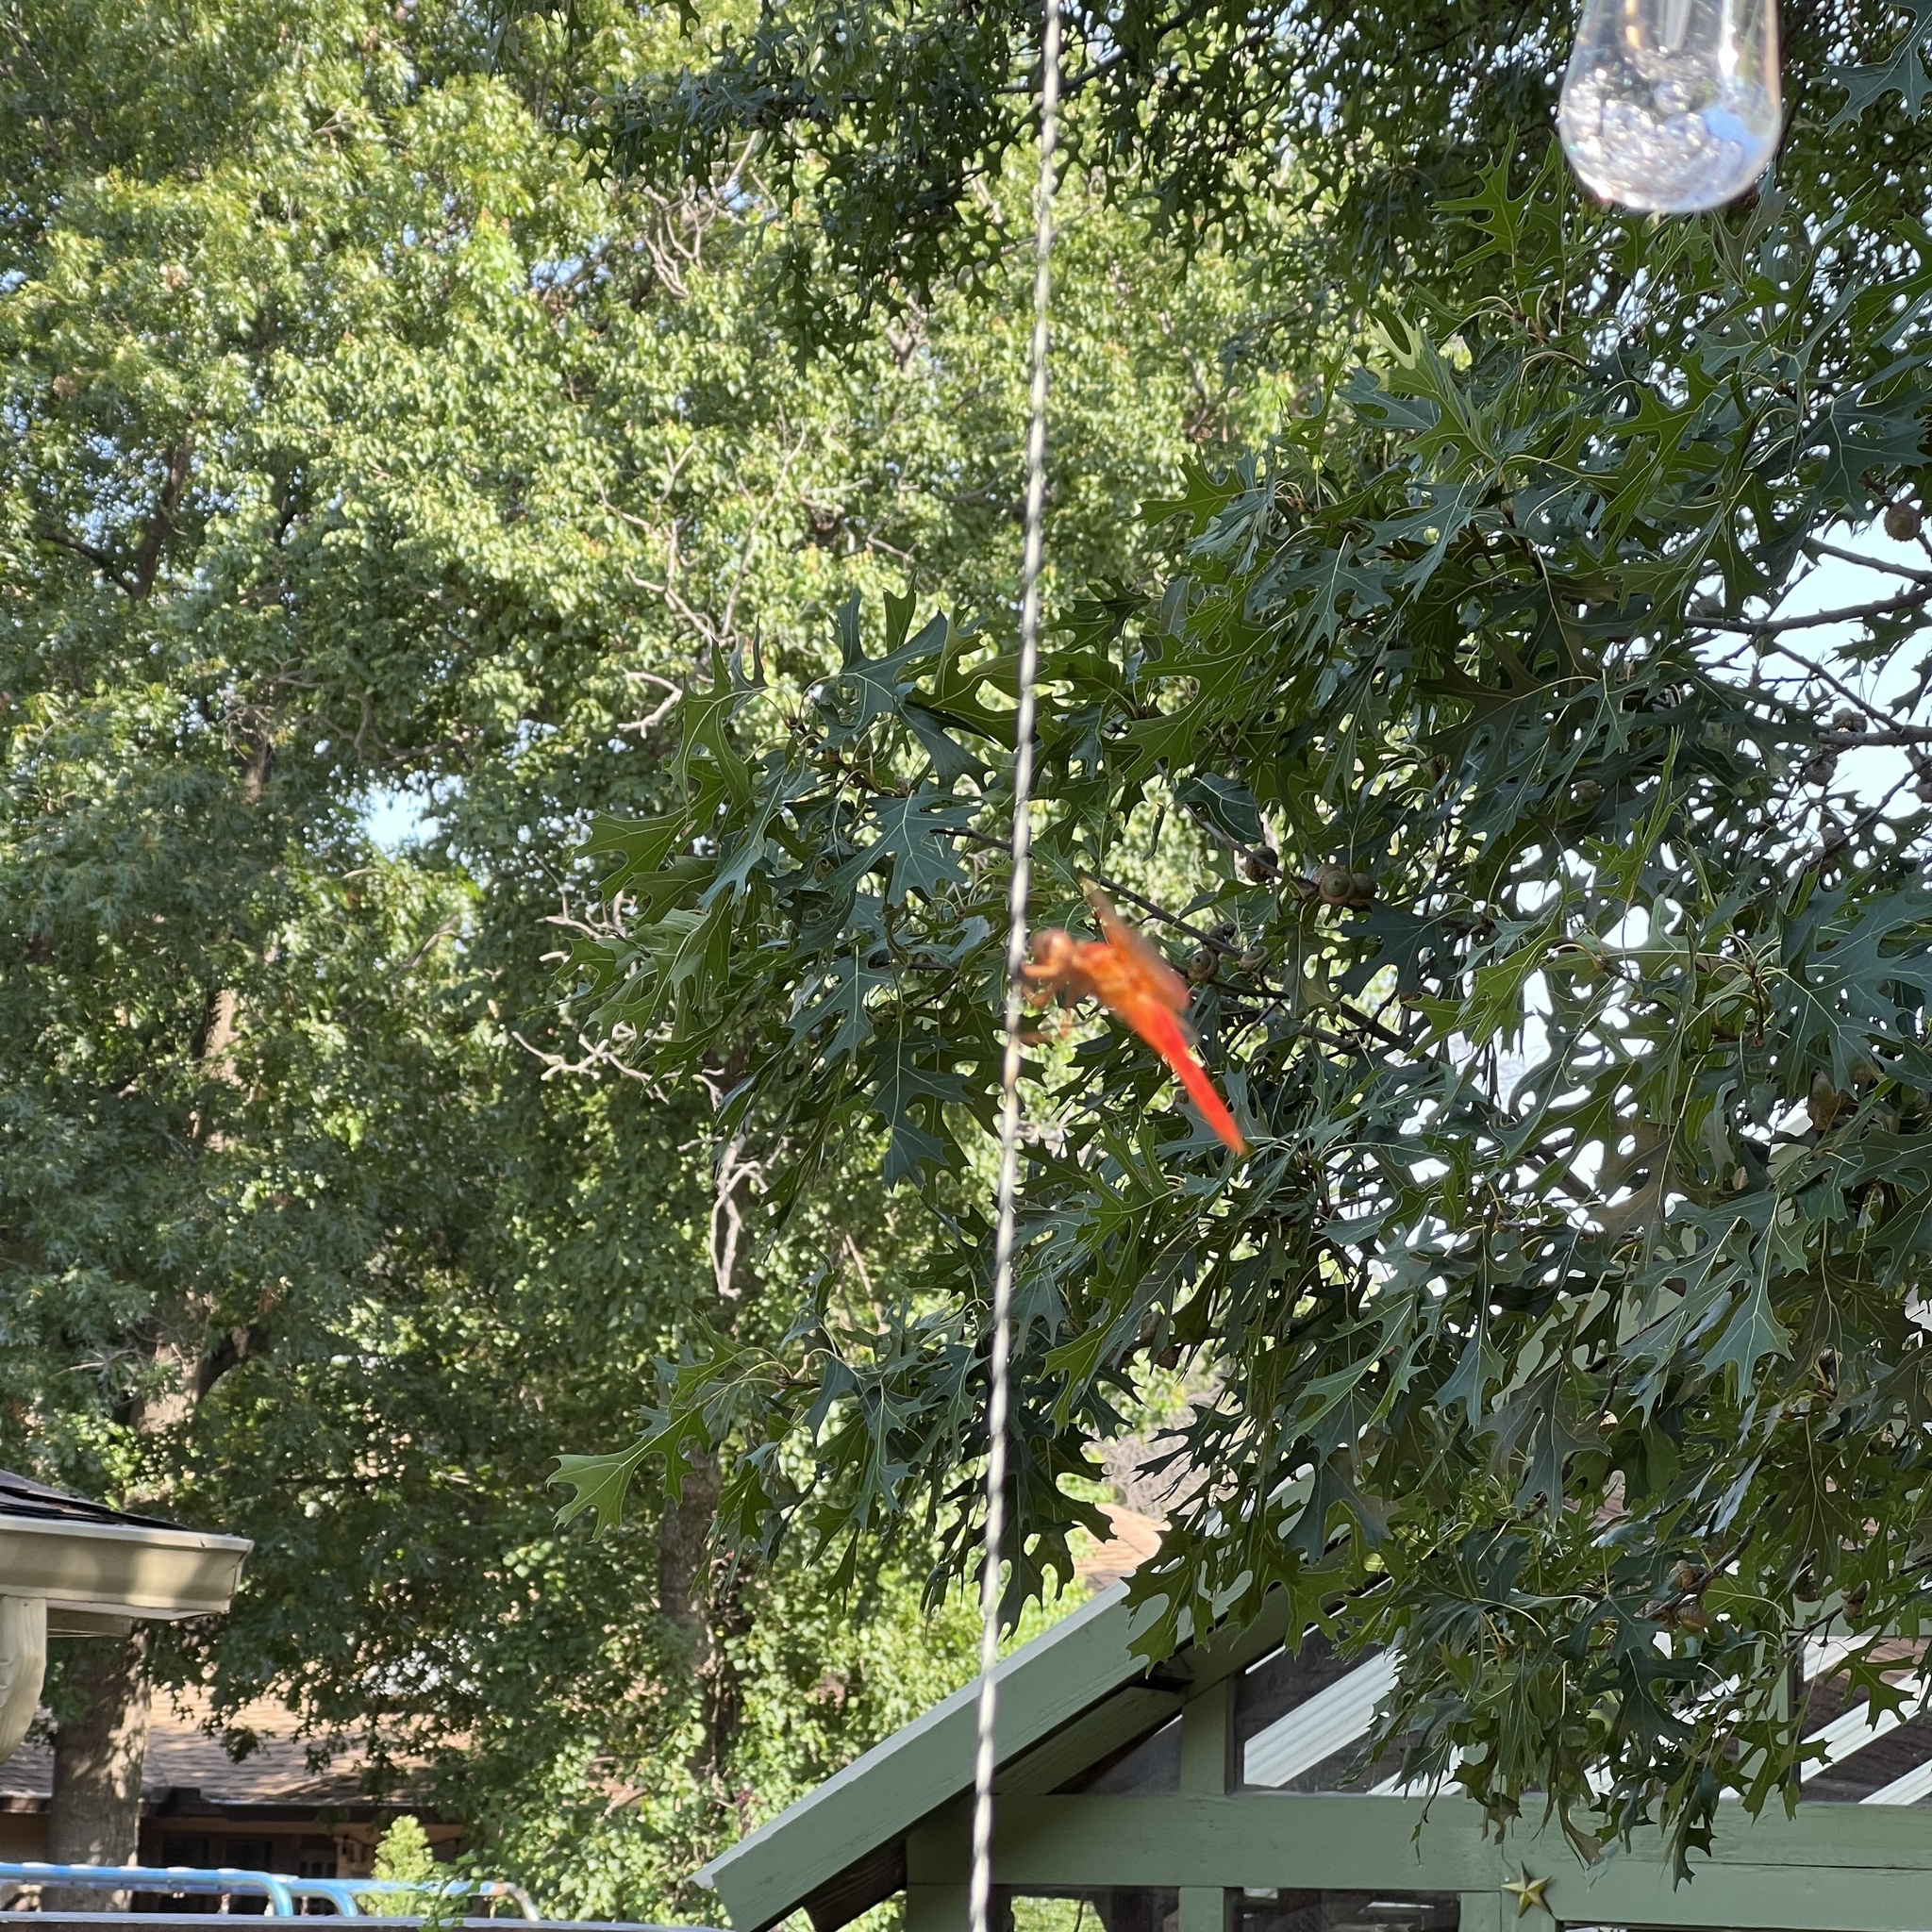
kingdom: Animalia
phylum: Arthropoda
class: Insecta
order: Odonata
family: Libellulidae
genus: Libellula
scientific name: Libellula croceipennis
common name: Neon skimmer
